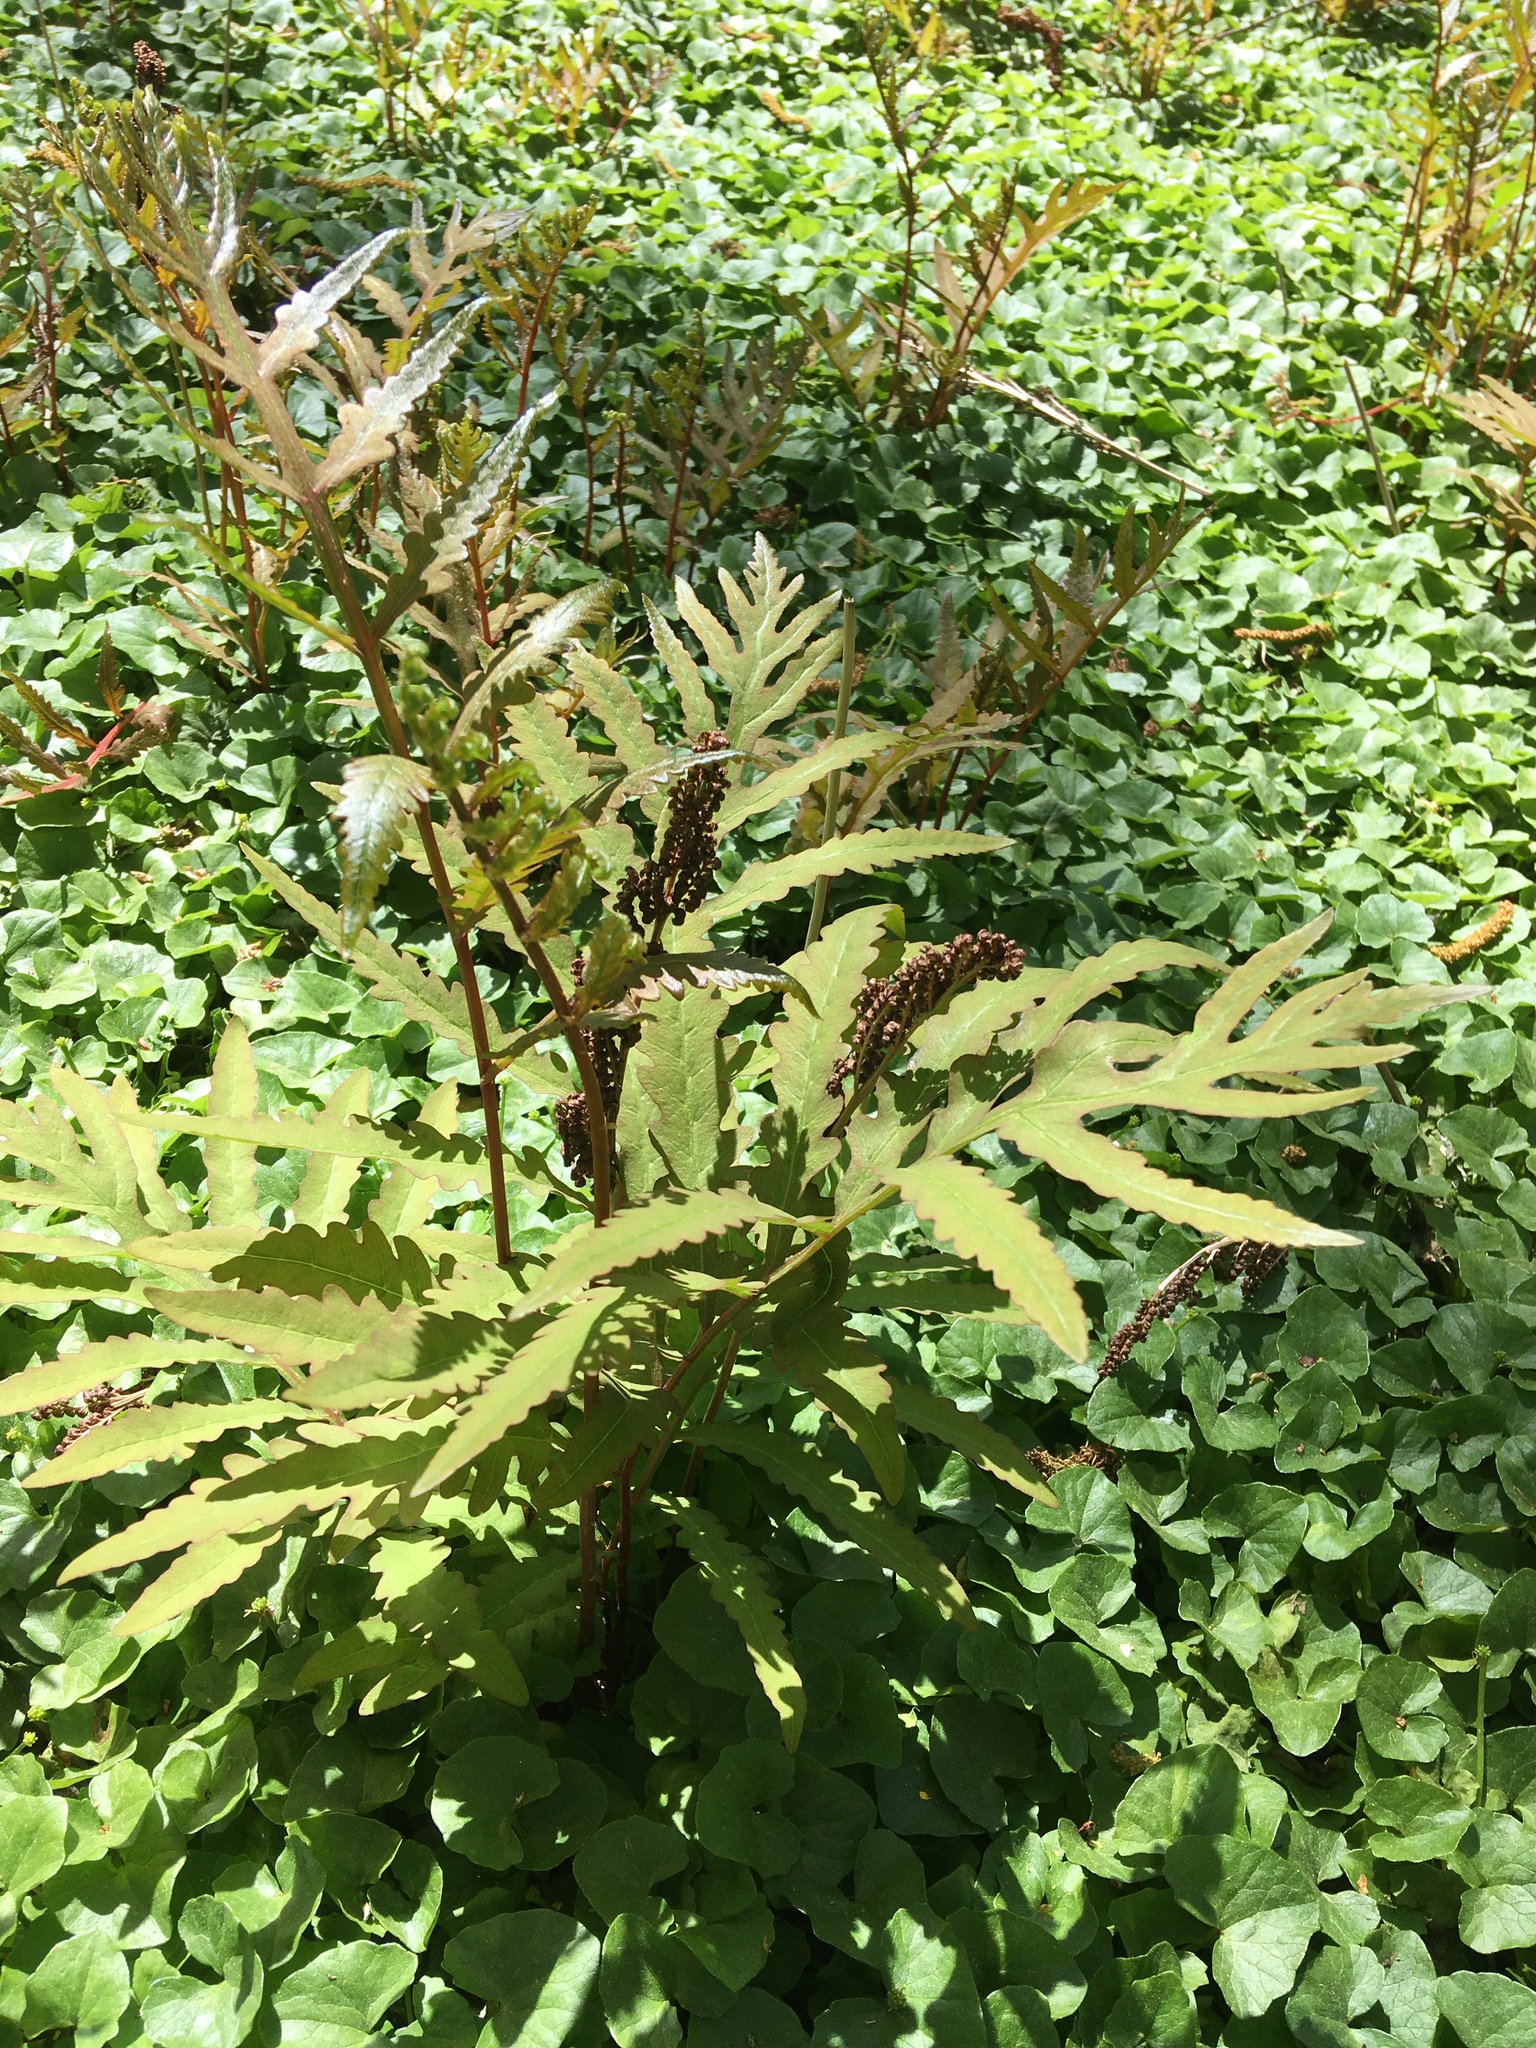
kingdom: Plantae
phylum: Tracheophyta
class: Polypodiopsida
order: Polypodiales
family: Onocleaceae
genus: Onoclea
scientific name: Onoclea sensibilis
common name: Sensitive fern
